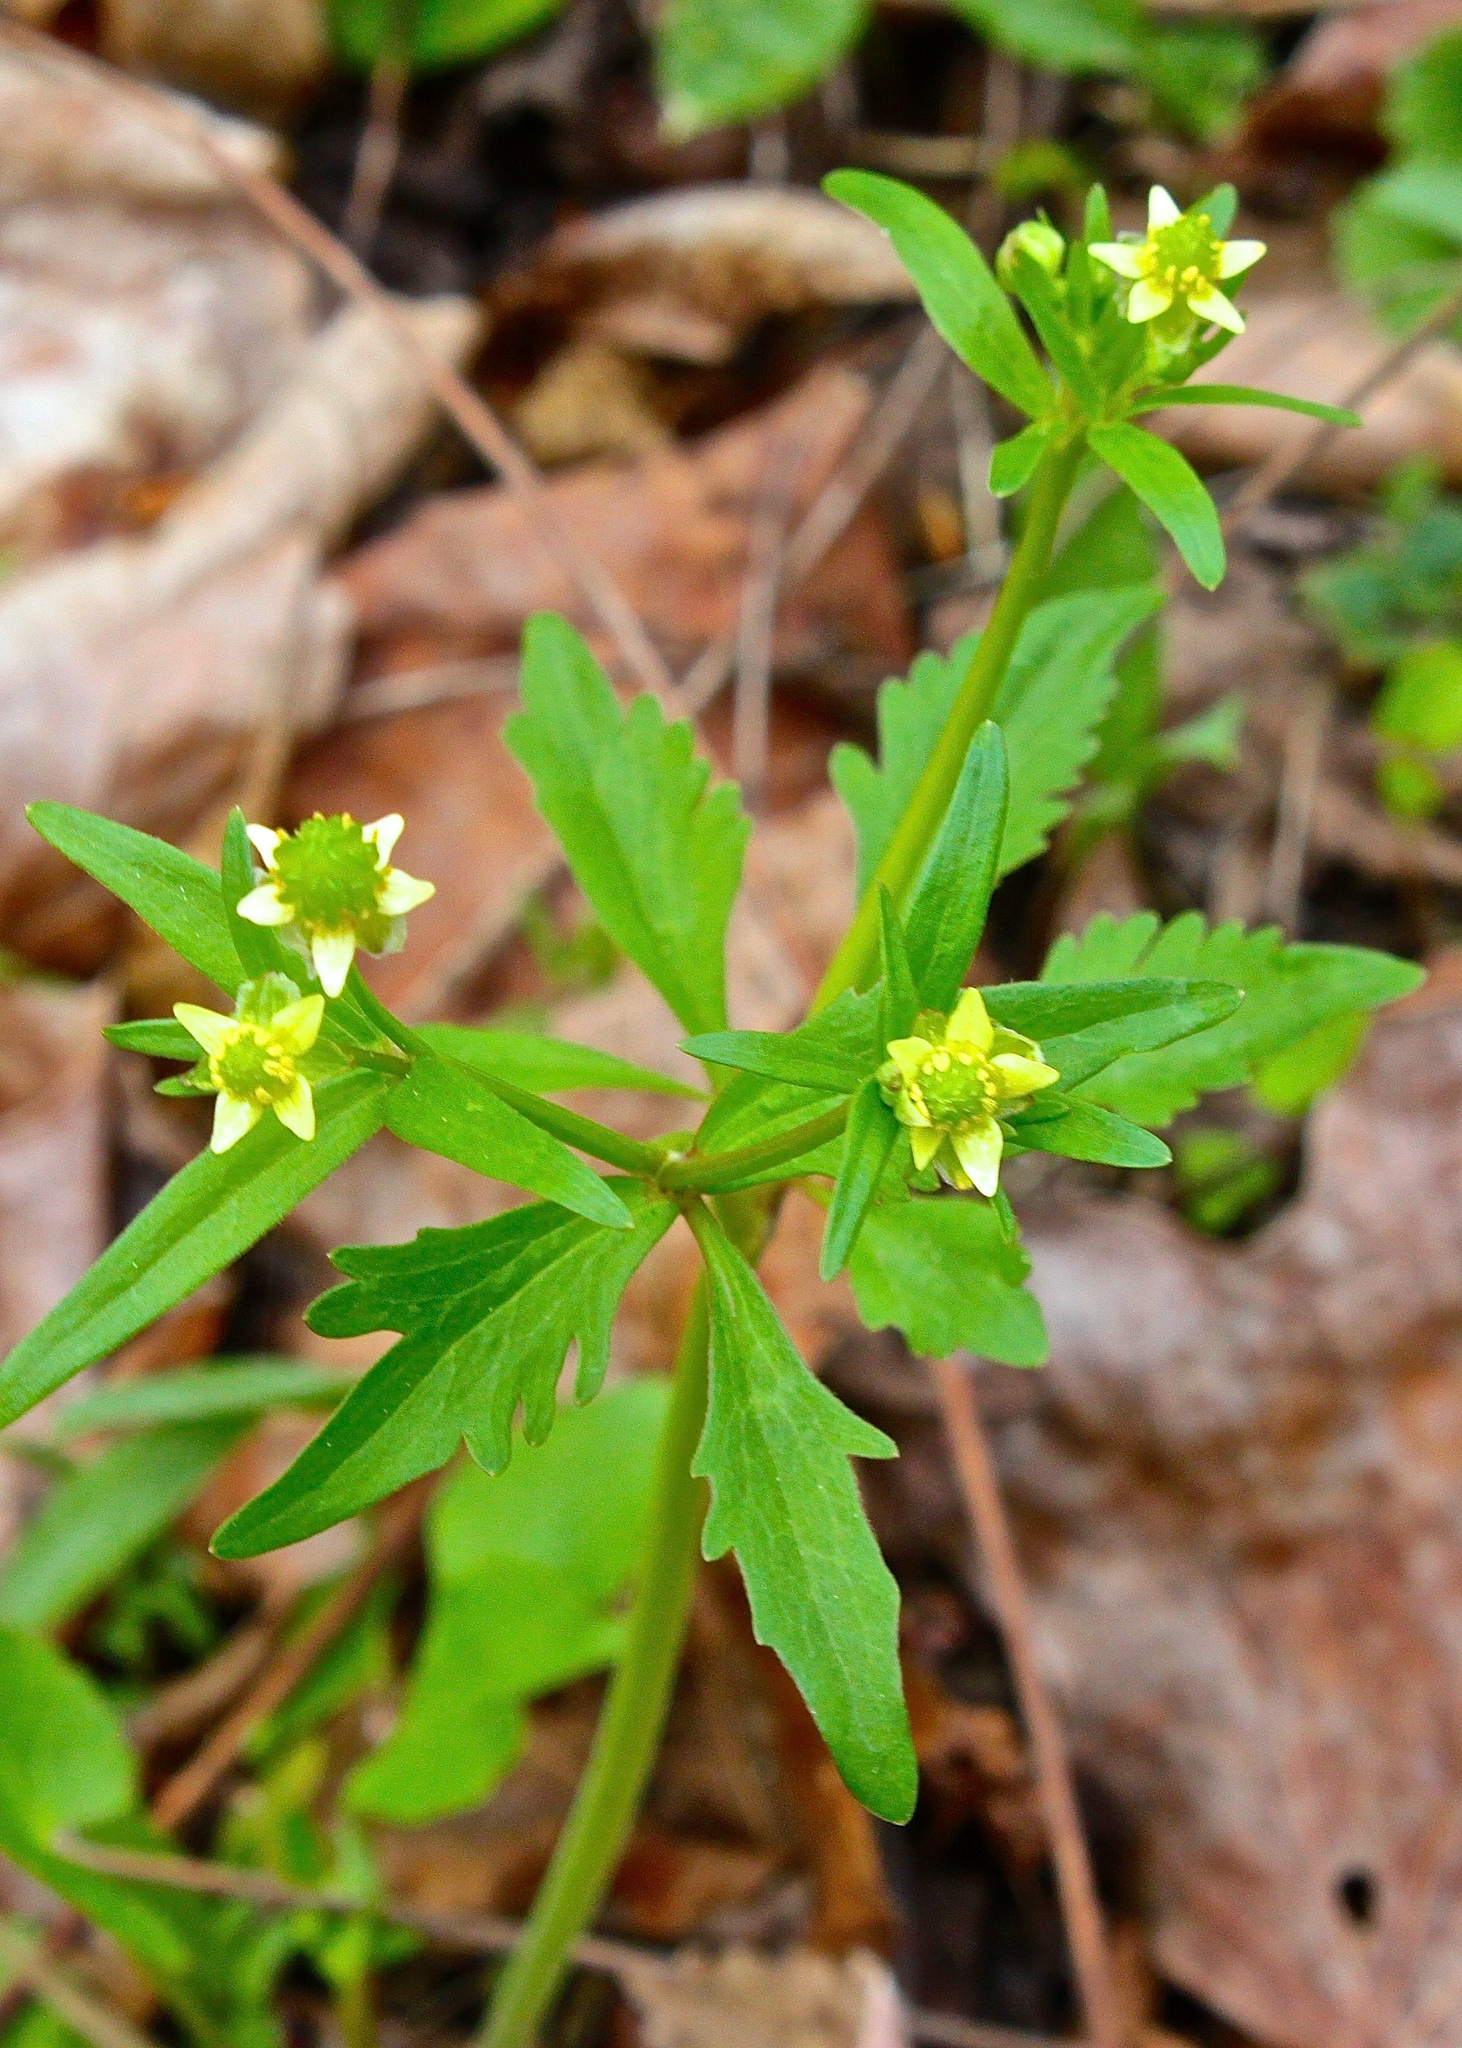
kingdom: Plantae
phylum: Tracheophyta
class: Magnoliopsida
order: Ranunculales
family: Ranunculaceae
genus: Ranunculus
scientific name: Ranunculus abortivus
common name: Early wood buttercup
